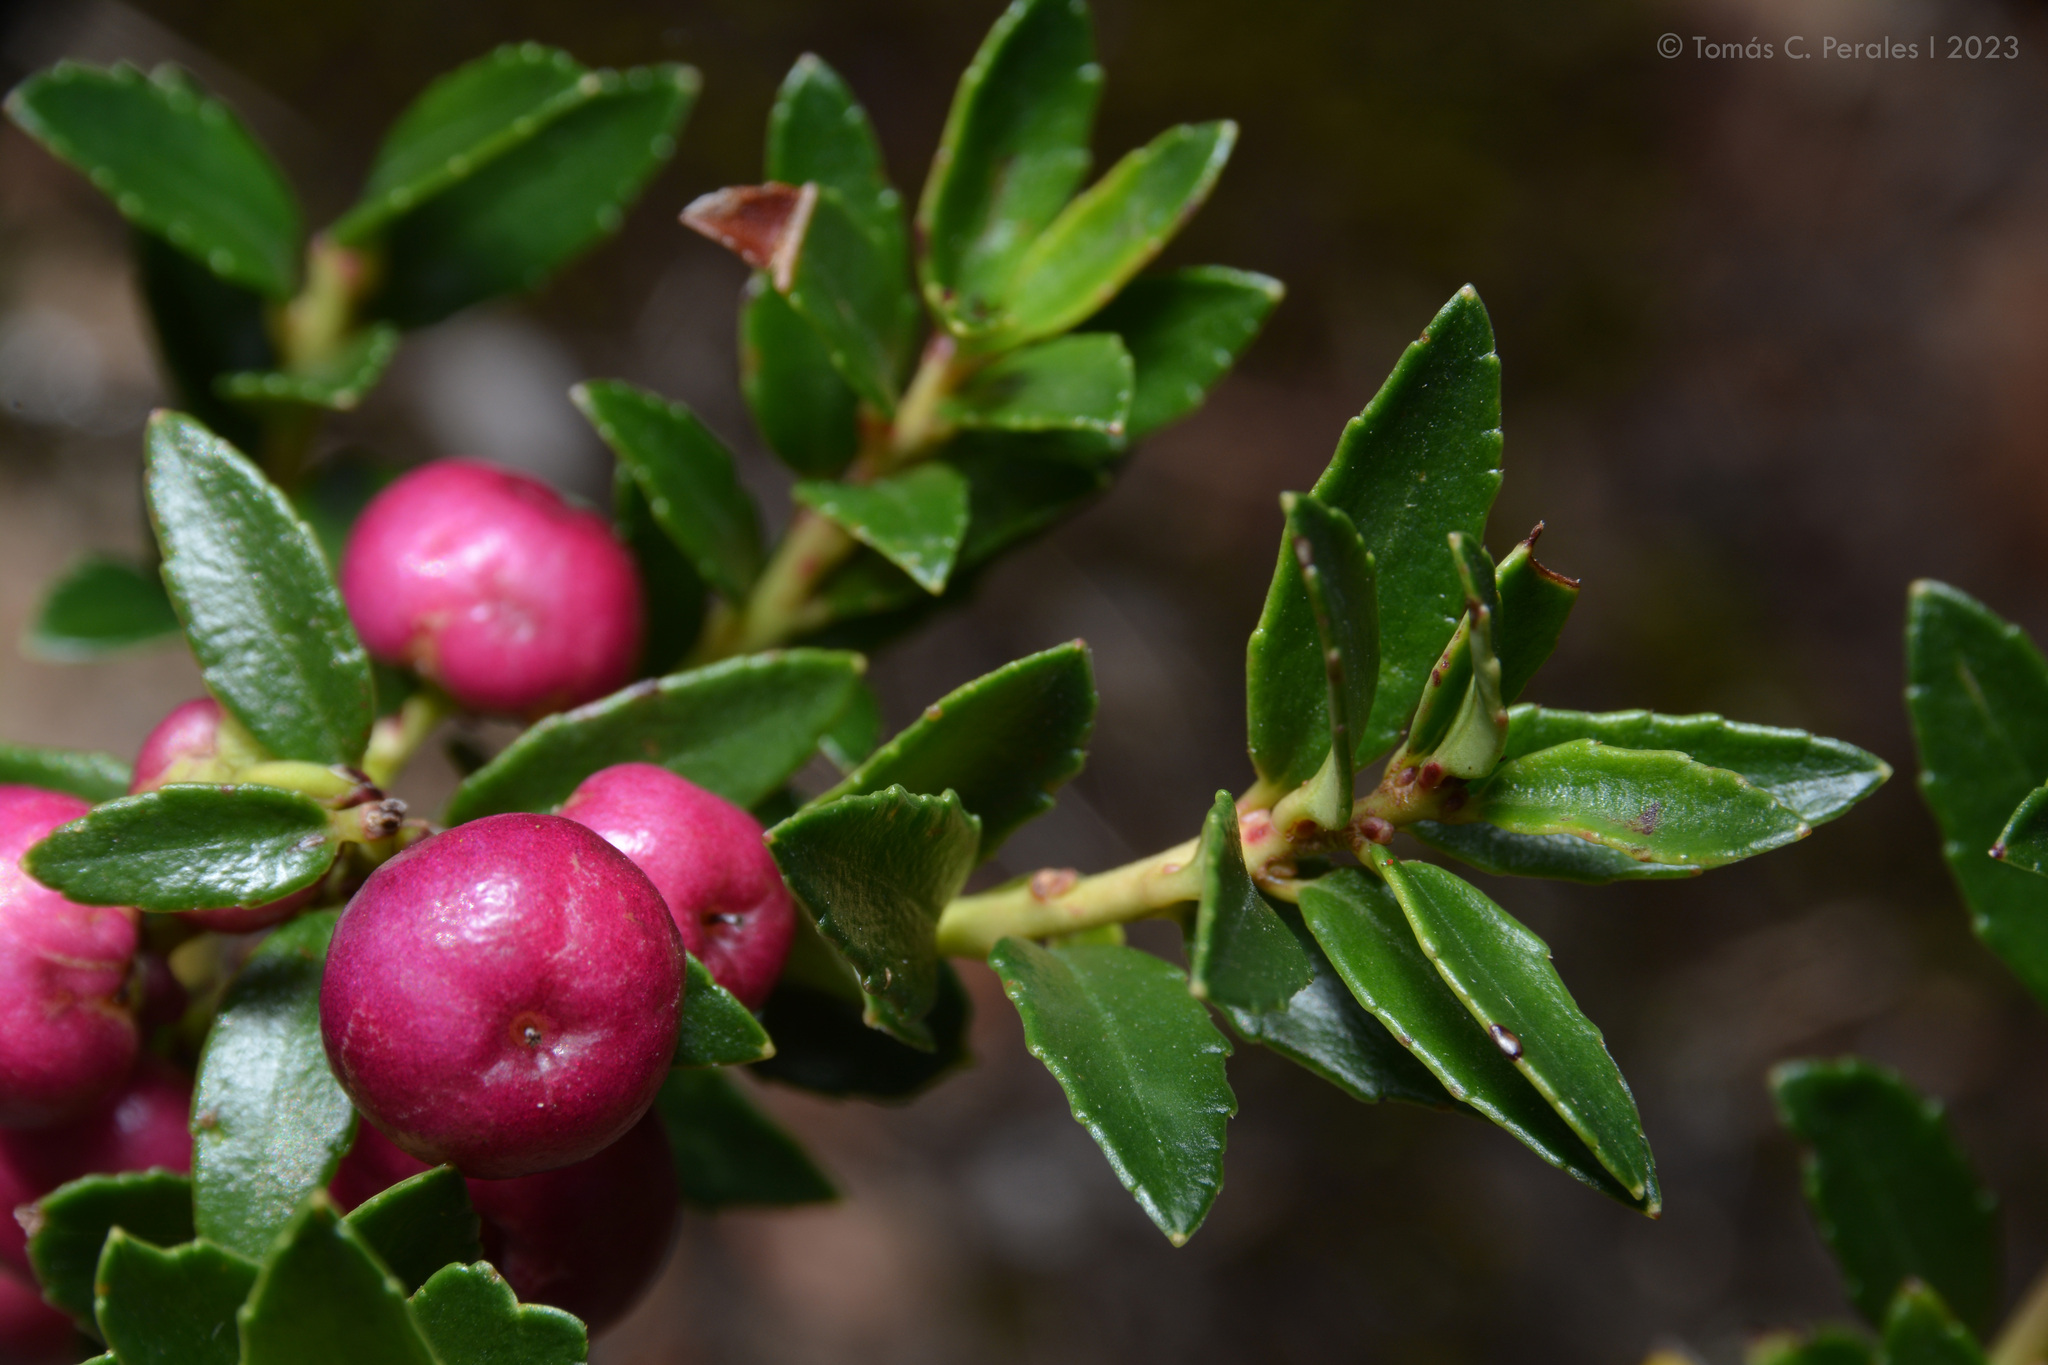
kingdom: Plantae
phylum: Tracheophyta
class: Magnoliopsida
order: Ericales
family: Ericaceae
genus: Gaultheria
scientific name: Gaultheria poeppigii
